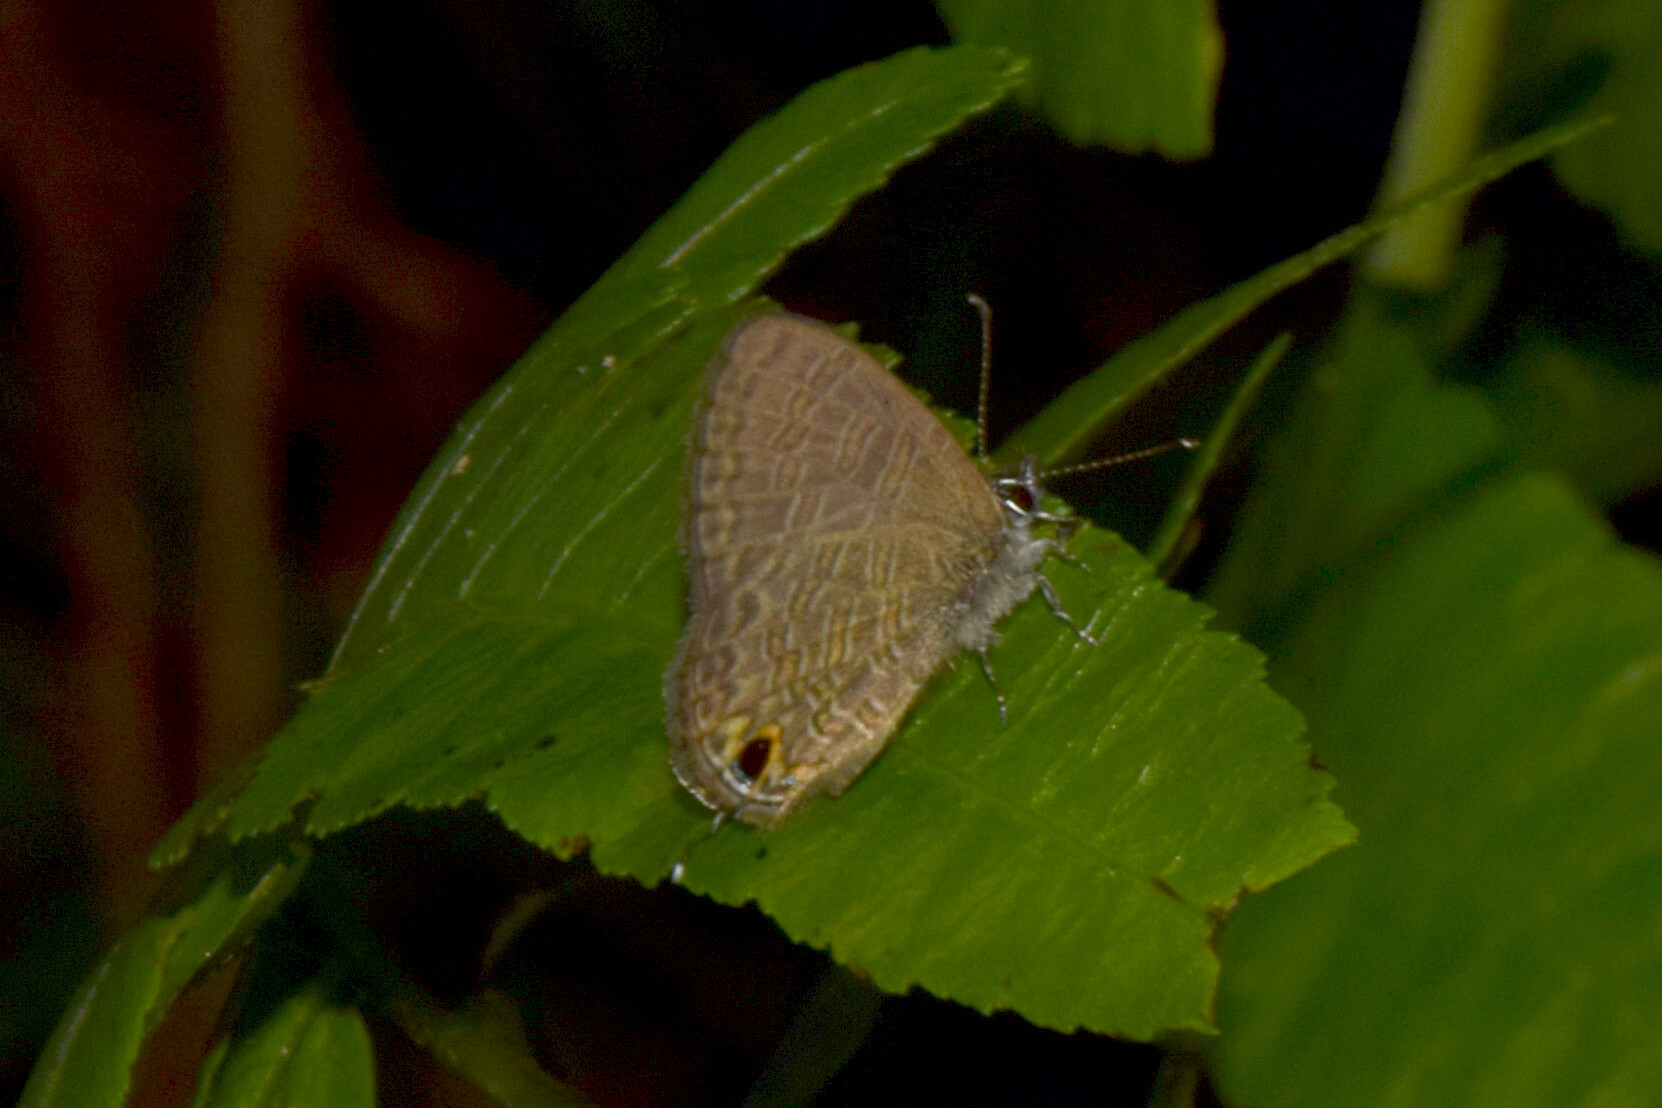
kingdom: Animalia
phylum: Arthropoda
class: Insecta
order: Lepidoptera
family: Lycaenidae
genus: Prosotas
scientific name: Prosotas nora
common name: Common line blue
